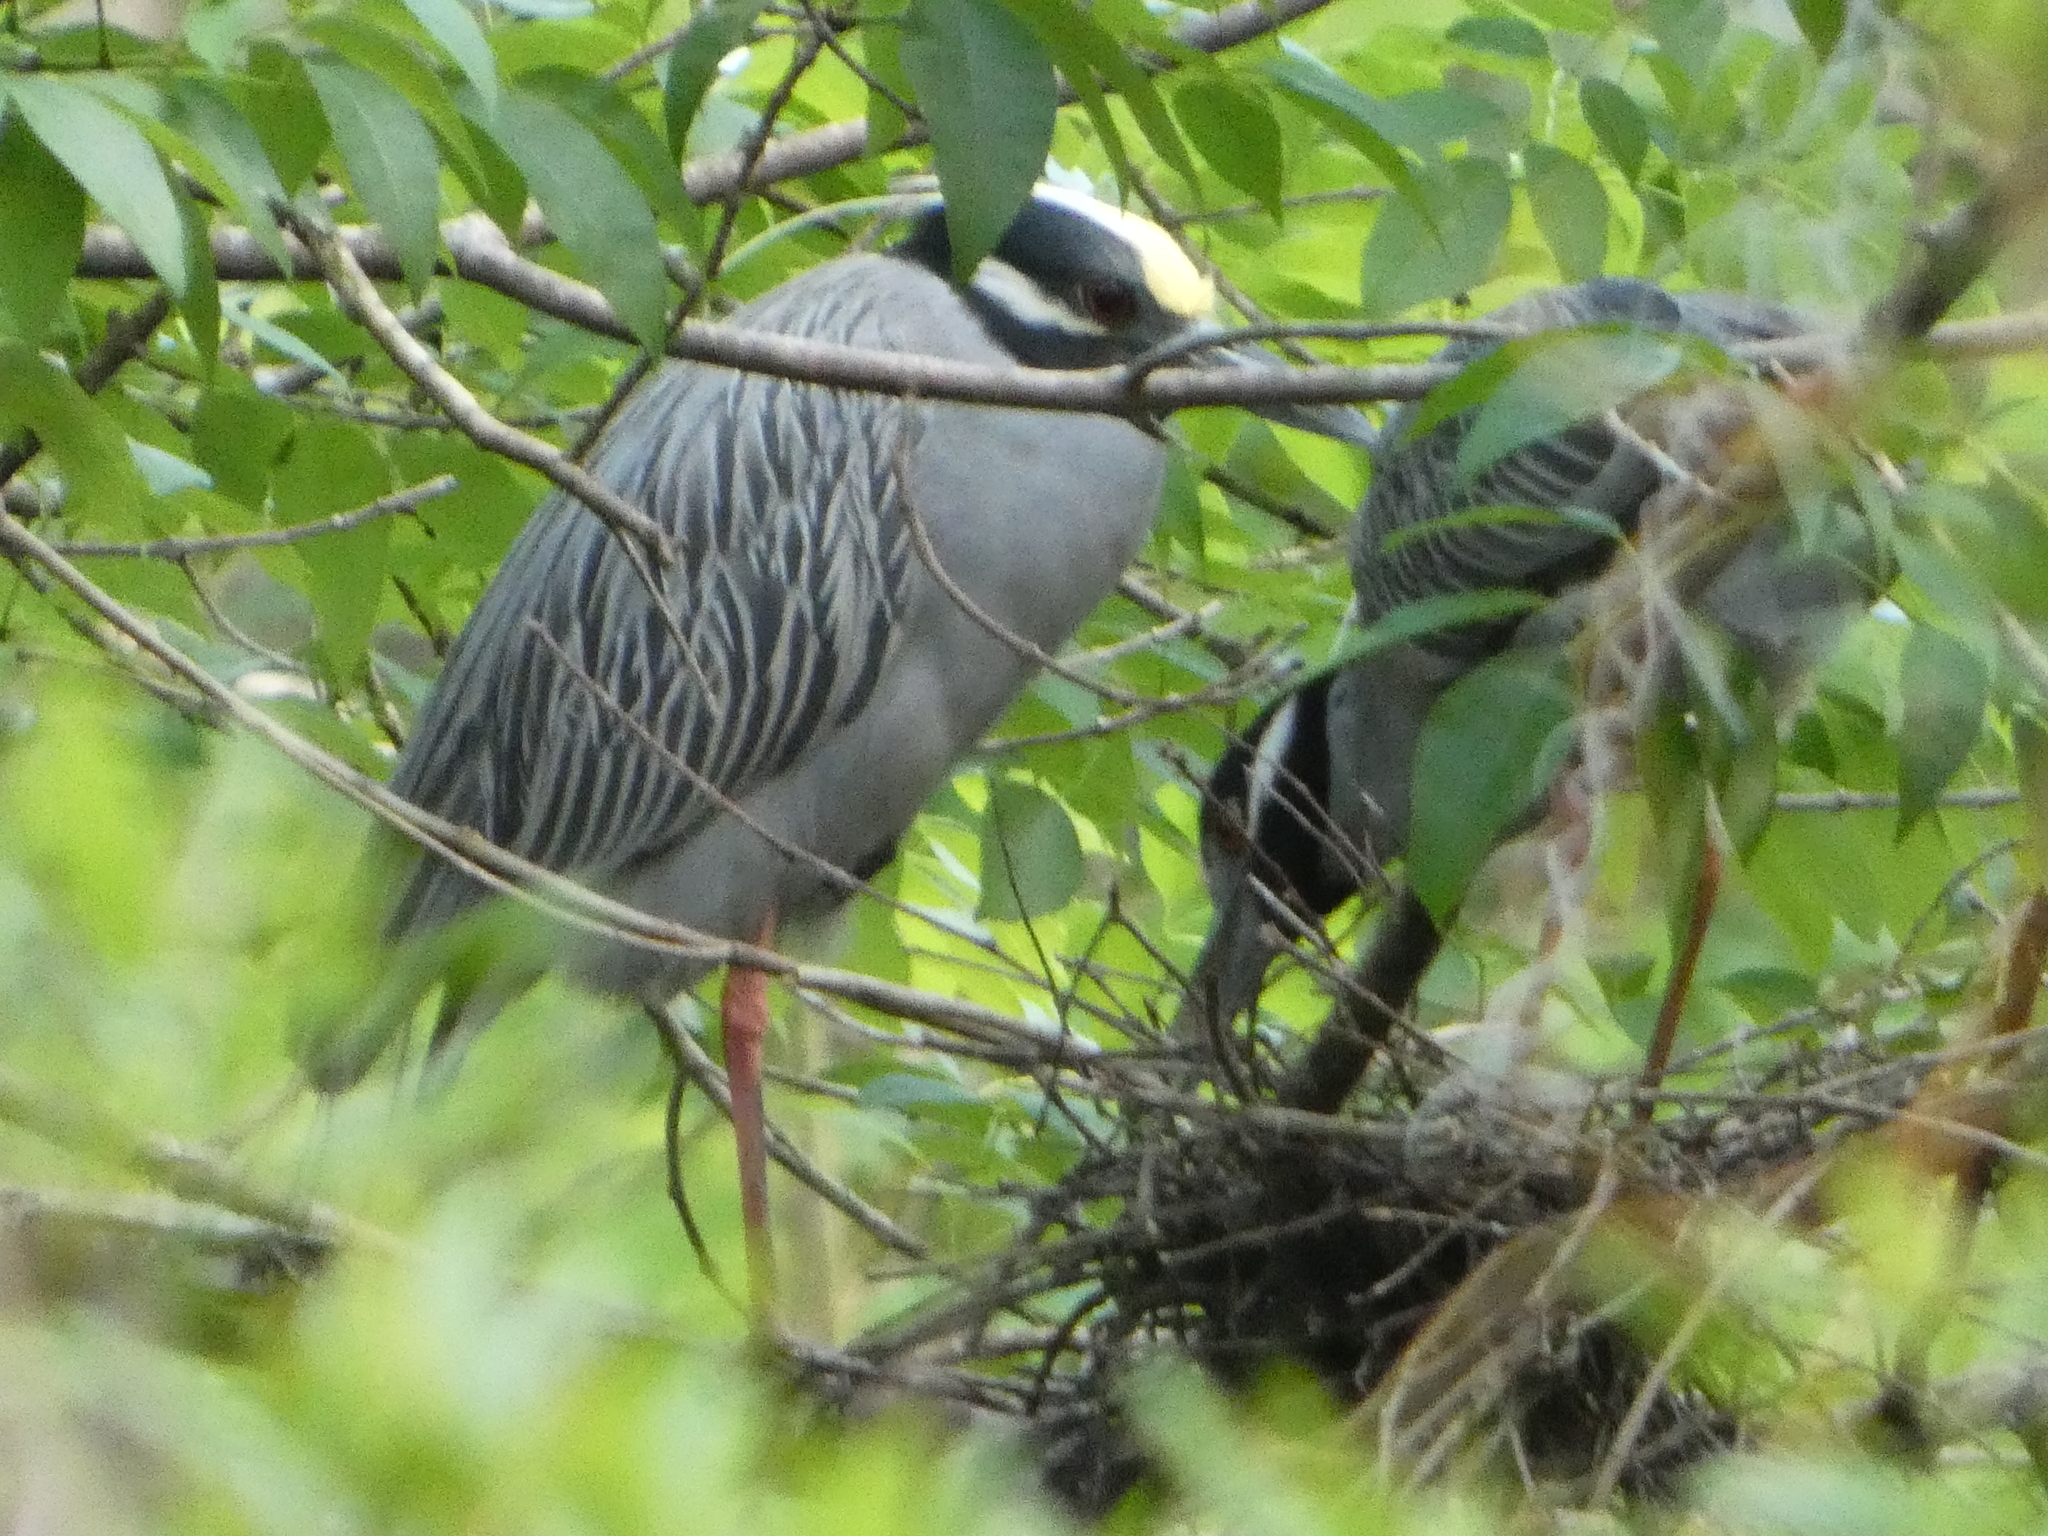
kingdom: Animalia
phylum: Chordata
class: Aves
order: Pelecaniformes
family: Ardeidae
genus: Nyctanassa
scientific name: Nyctanassa violacea
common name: Yellow-crowned night heron
